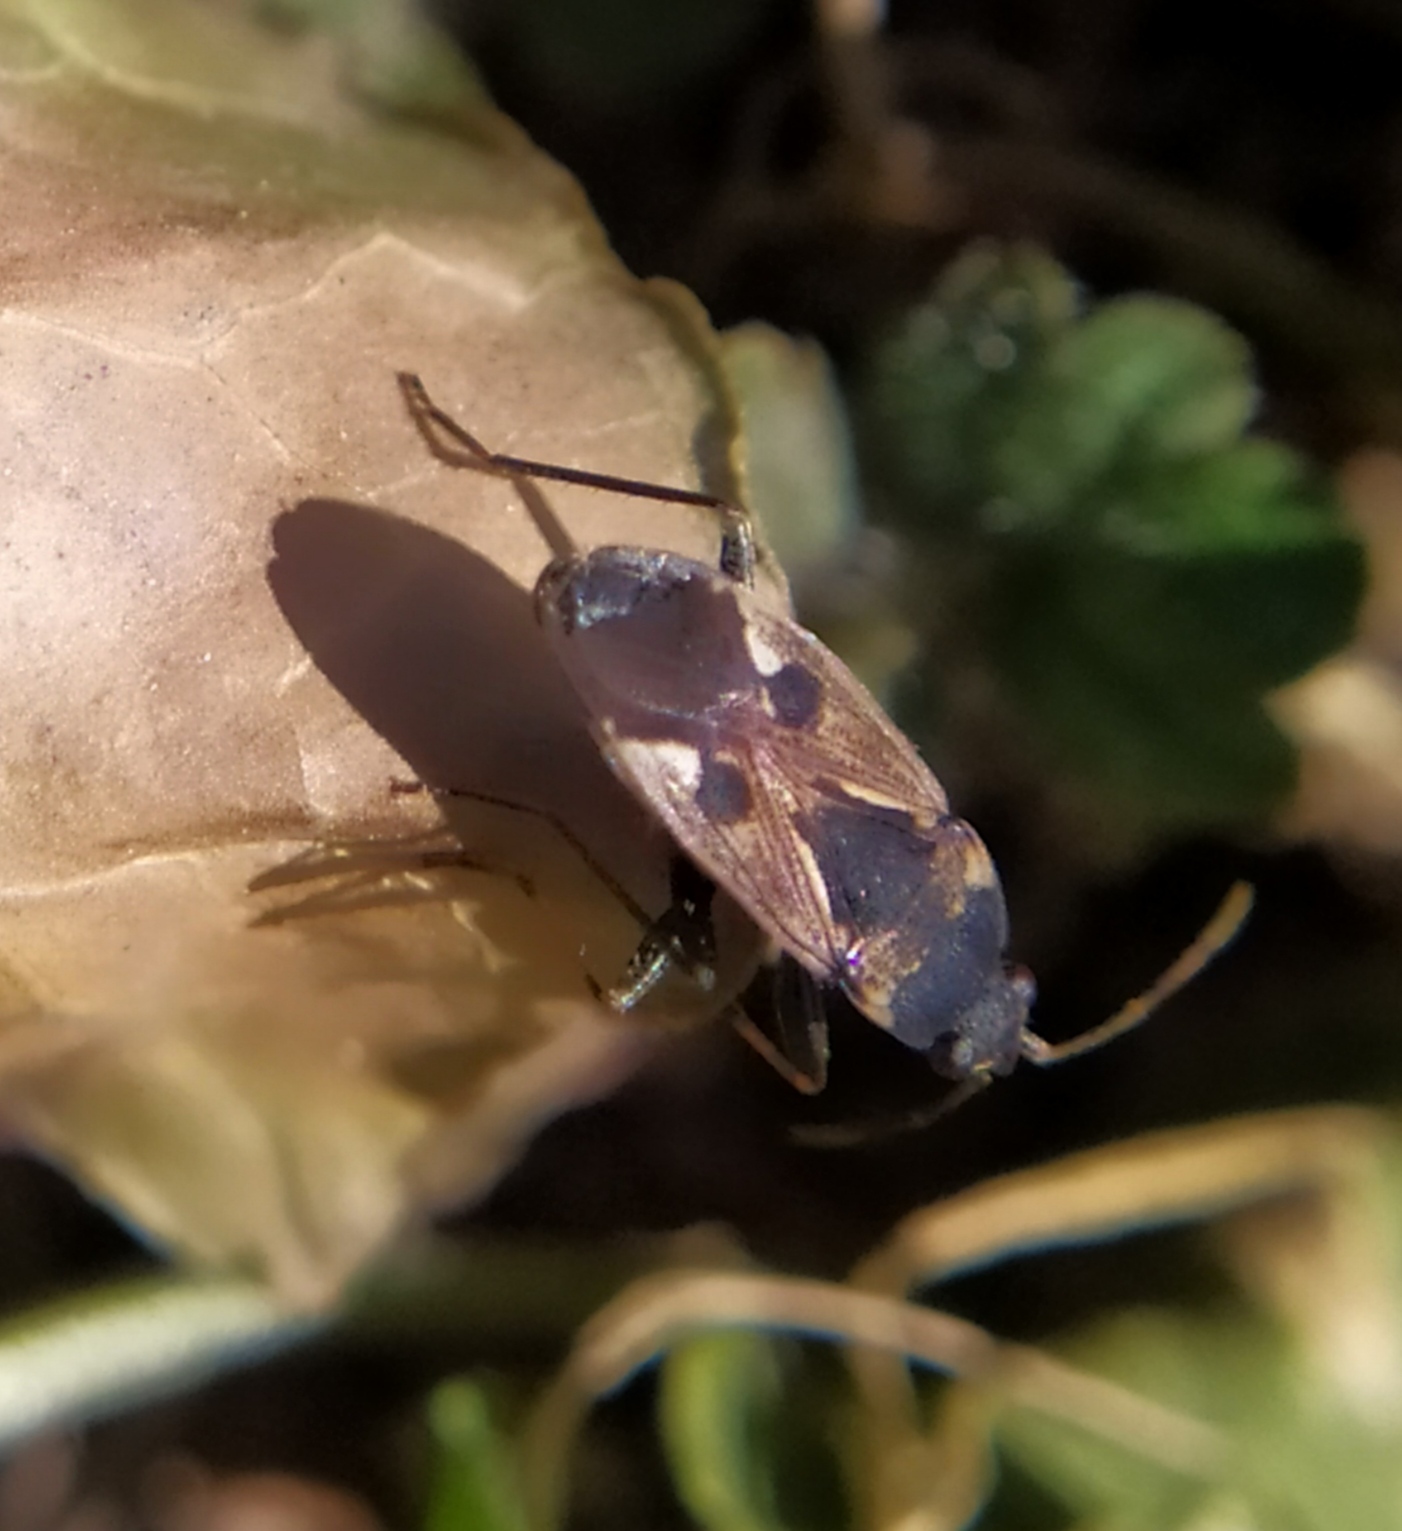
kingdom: Animalia
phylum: Arthropoda
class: Insecta
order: Hemiptera
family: Rhyparochromidae
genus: Rhyparochromus
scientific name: Rhyparochromus vulgaris
